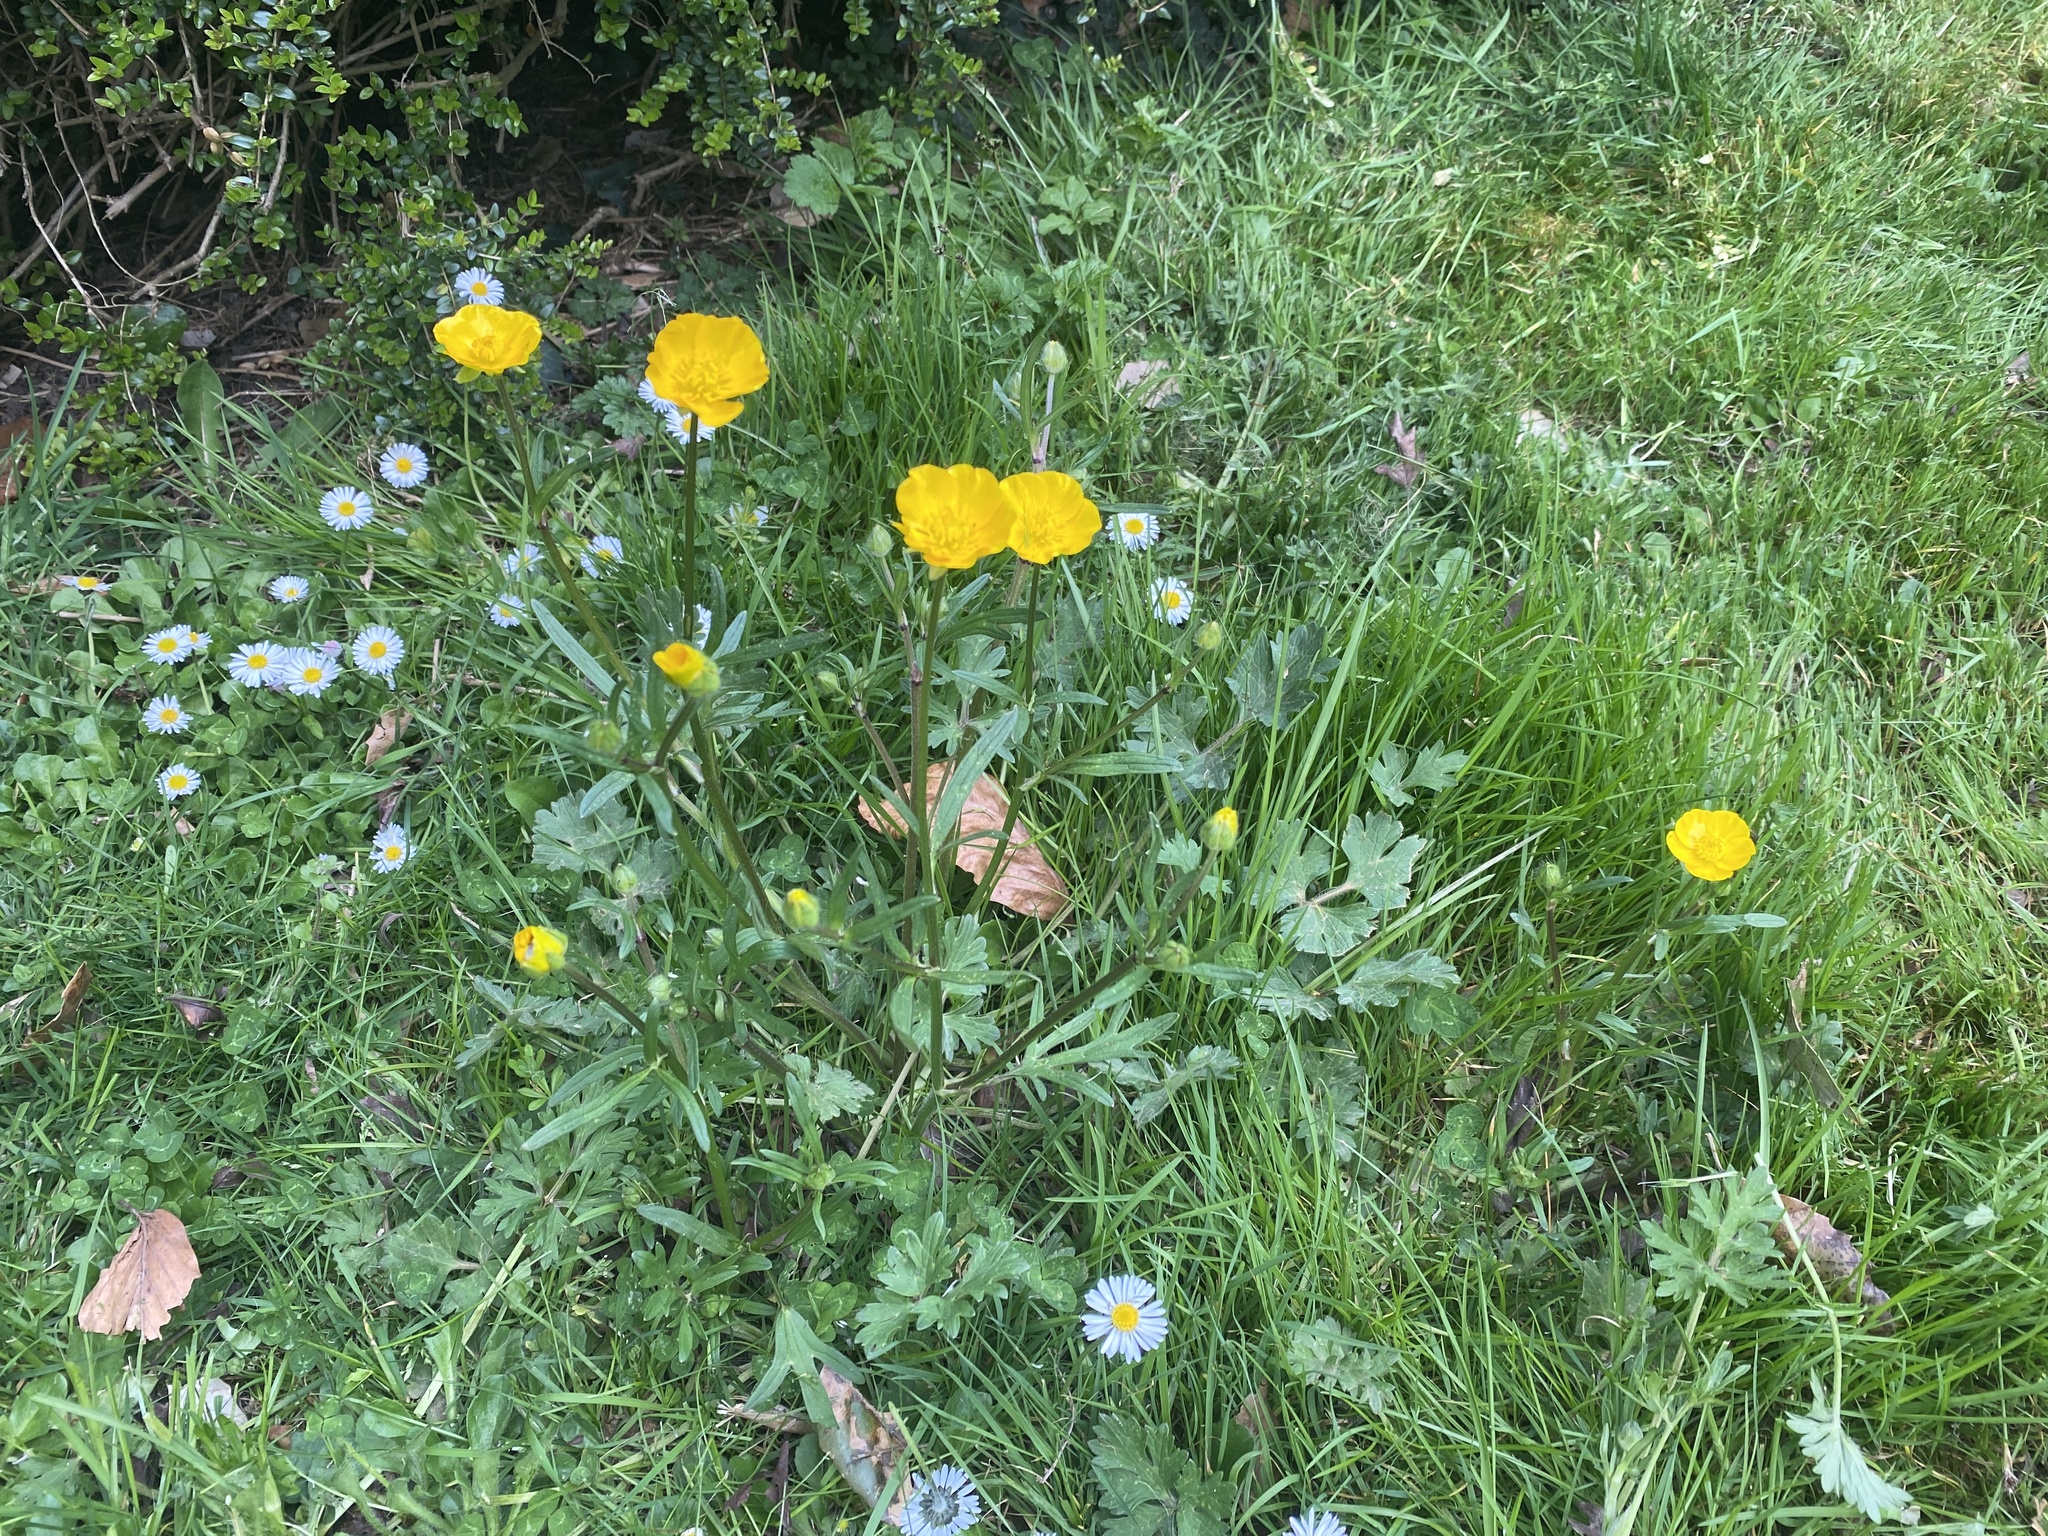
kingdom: Plantae
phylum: Tracheophyta
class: Magnoliopsida
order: Ranunculales
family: Ranunculaceae
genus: Ranunculus
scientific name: Ranunculus bulbosus
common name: Bulbous buttercup
